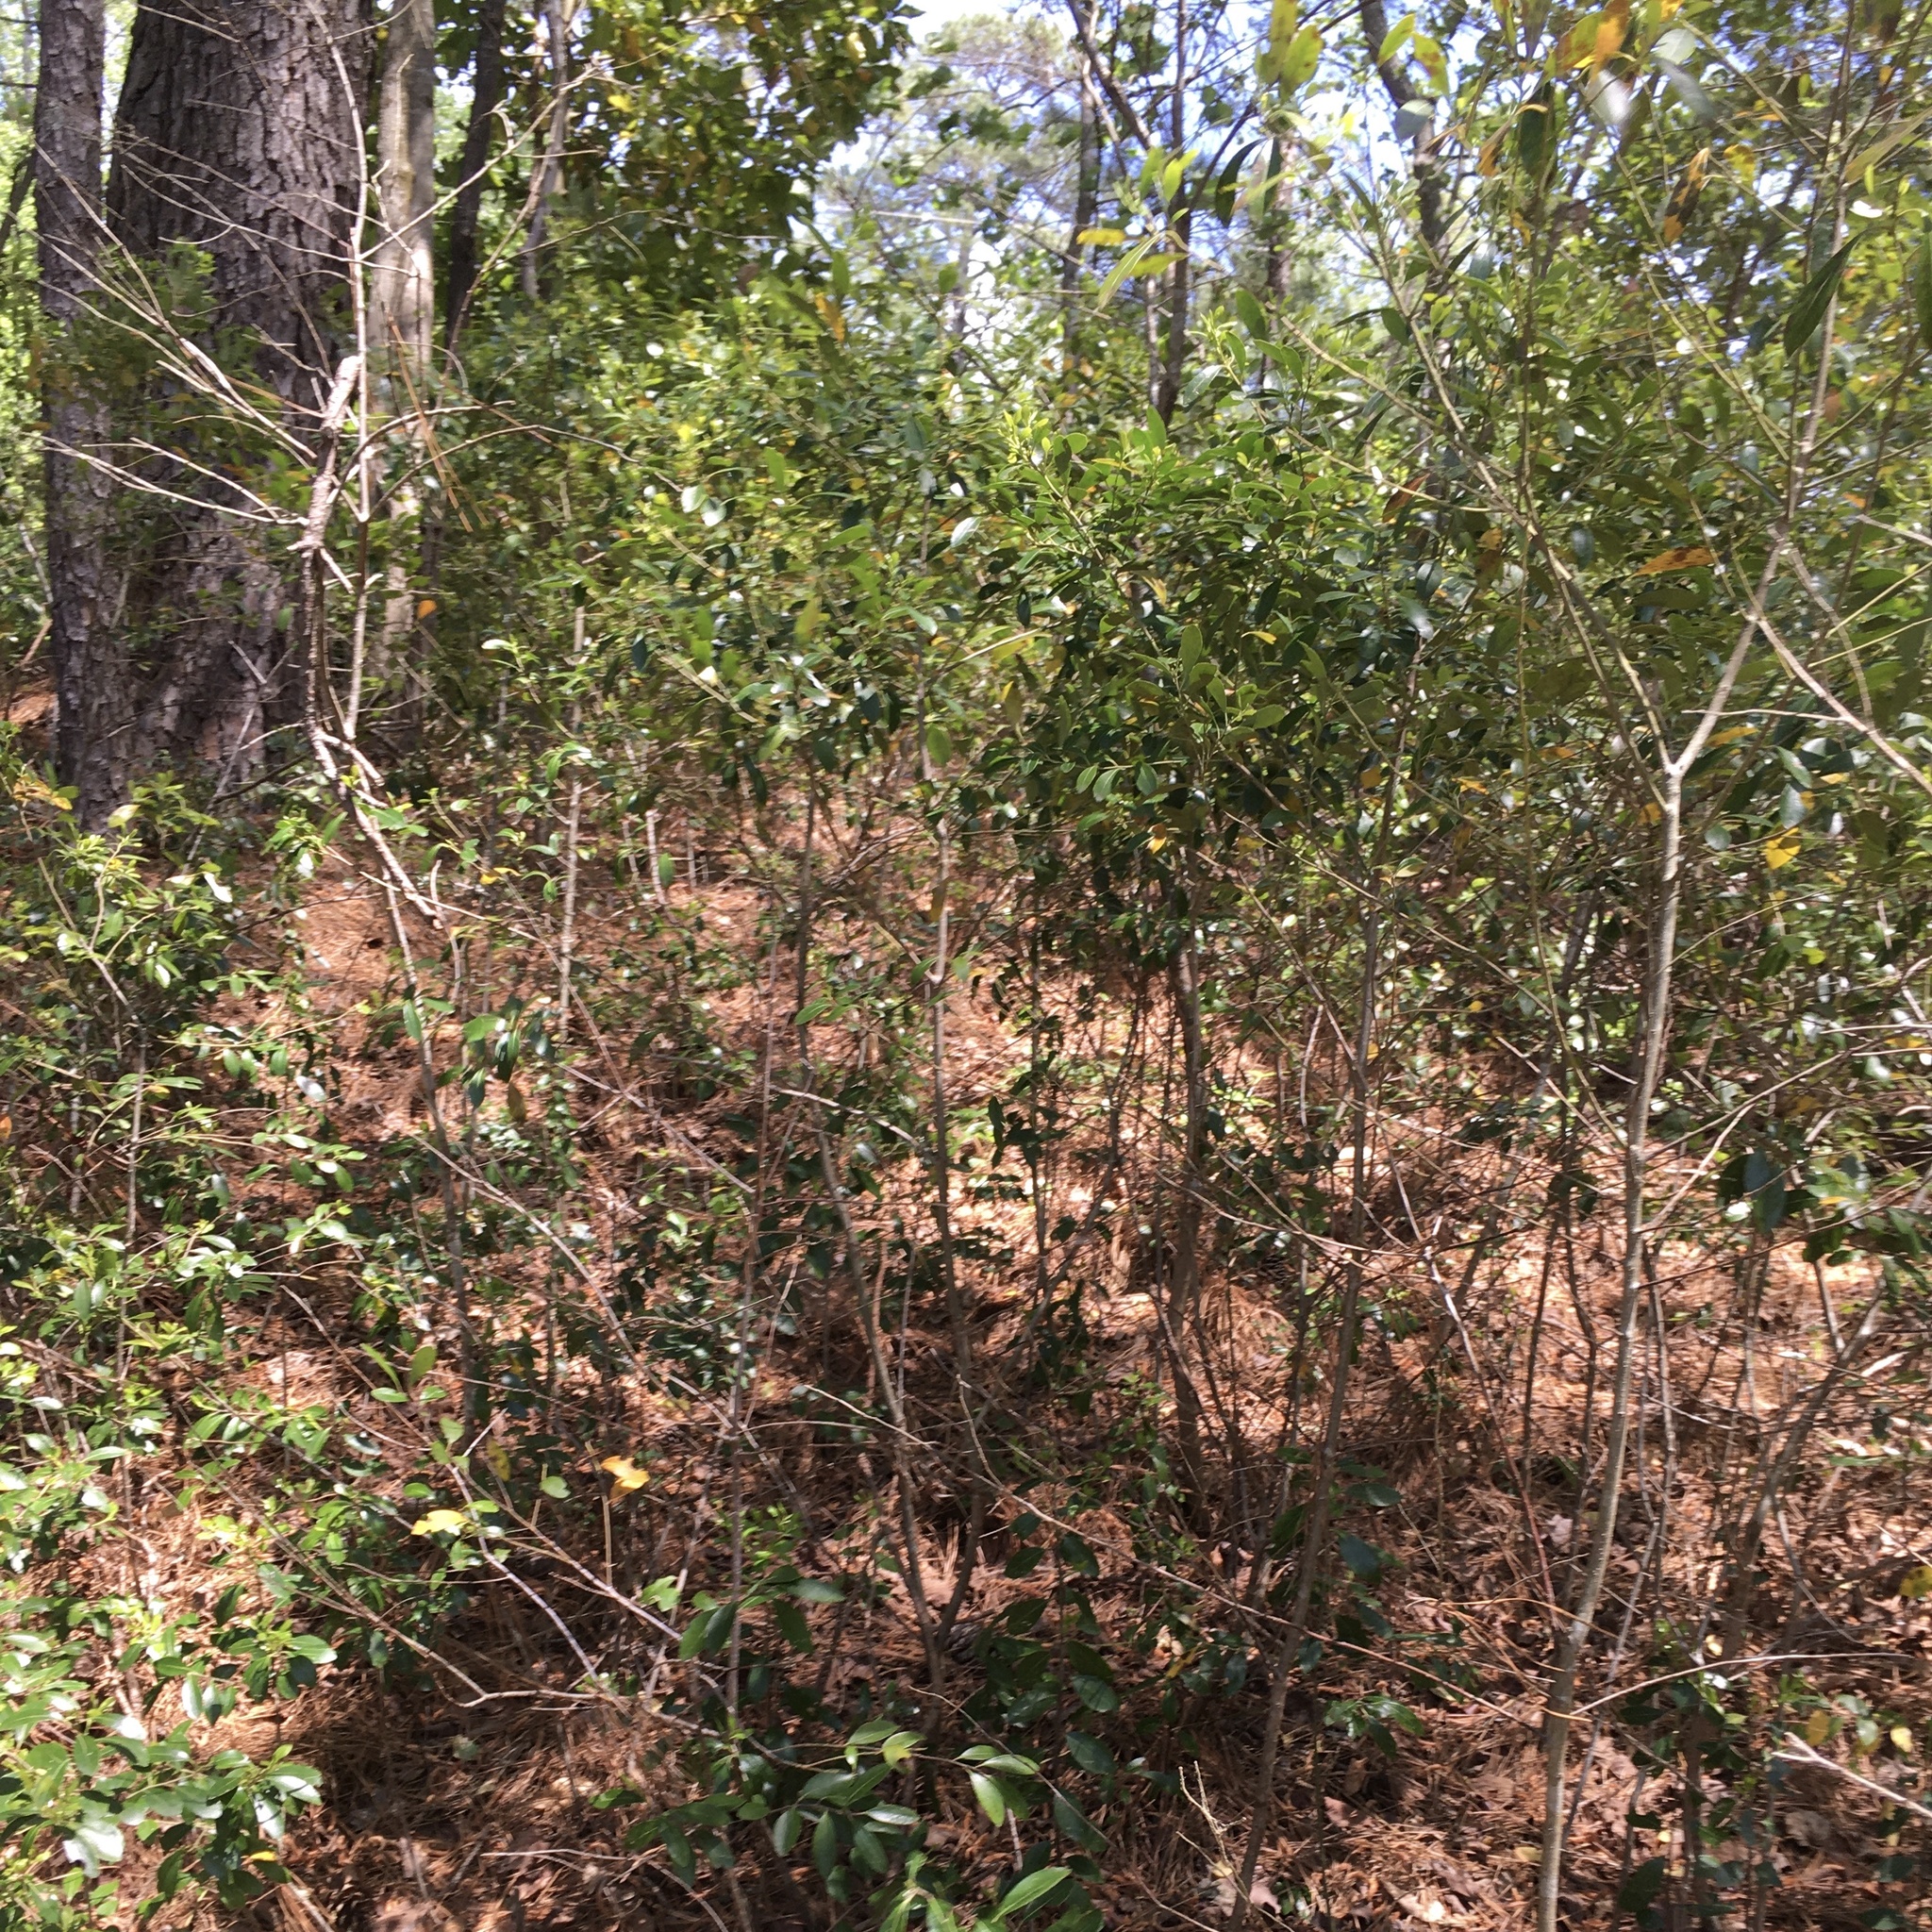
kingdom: Plantae
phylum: Tracheophyta
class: Magnoliopsida
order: Aquifoliales
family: Aquifoliaceae
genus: Ilex
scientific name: Ilex glabra
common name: Bitter gallberry
